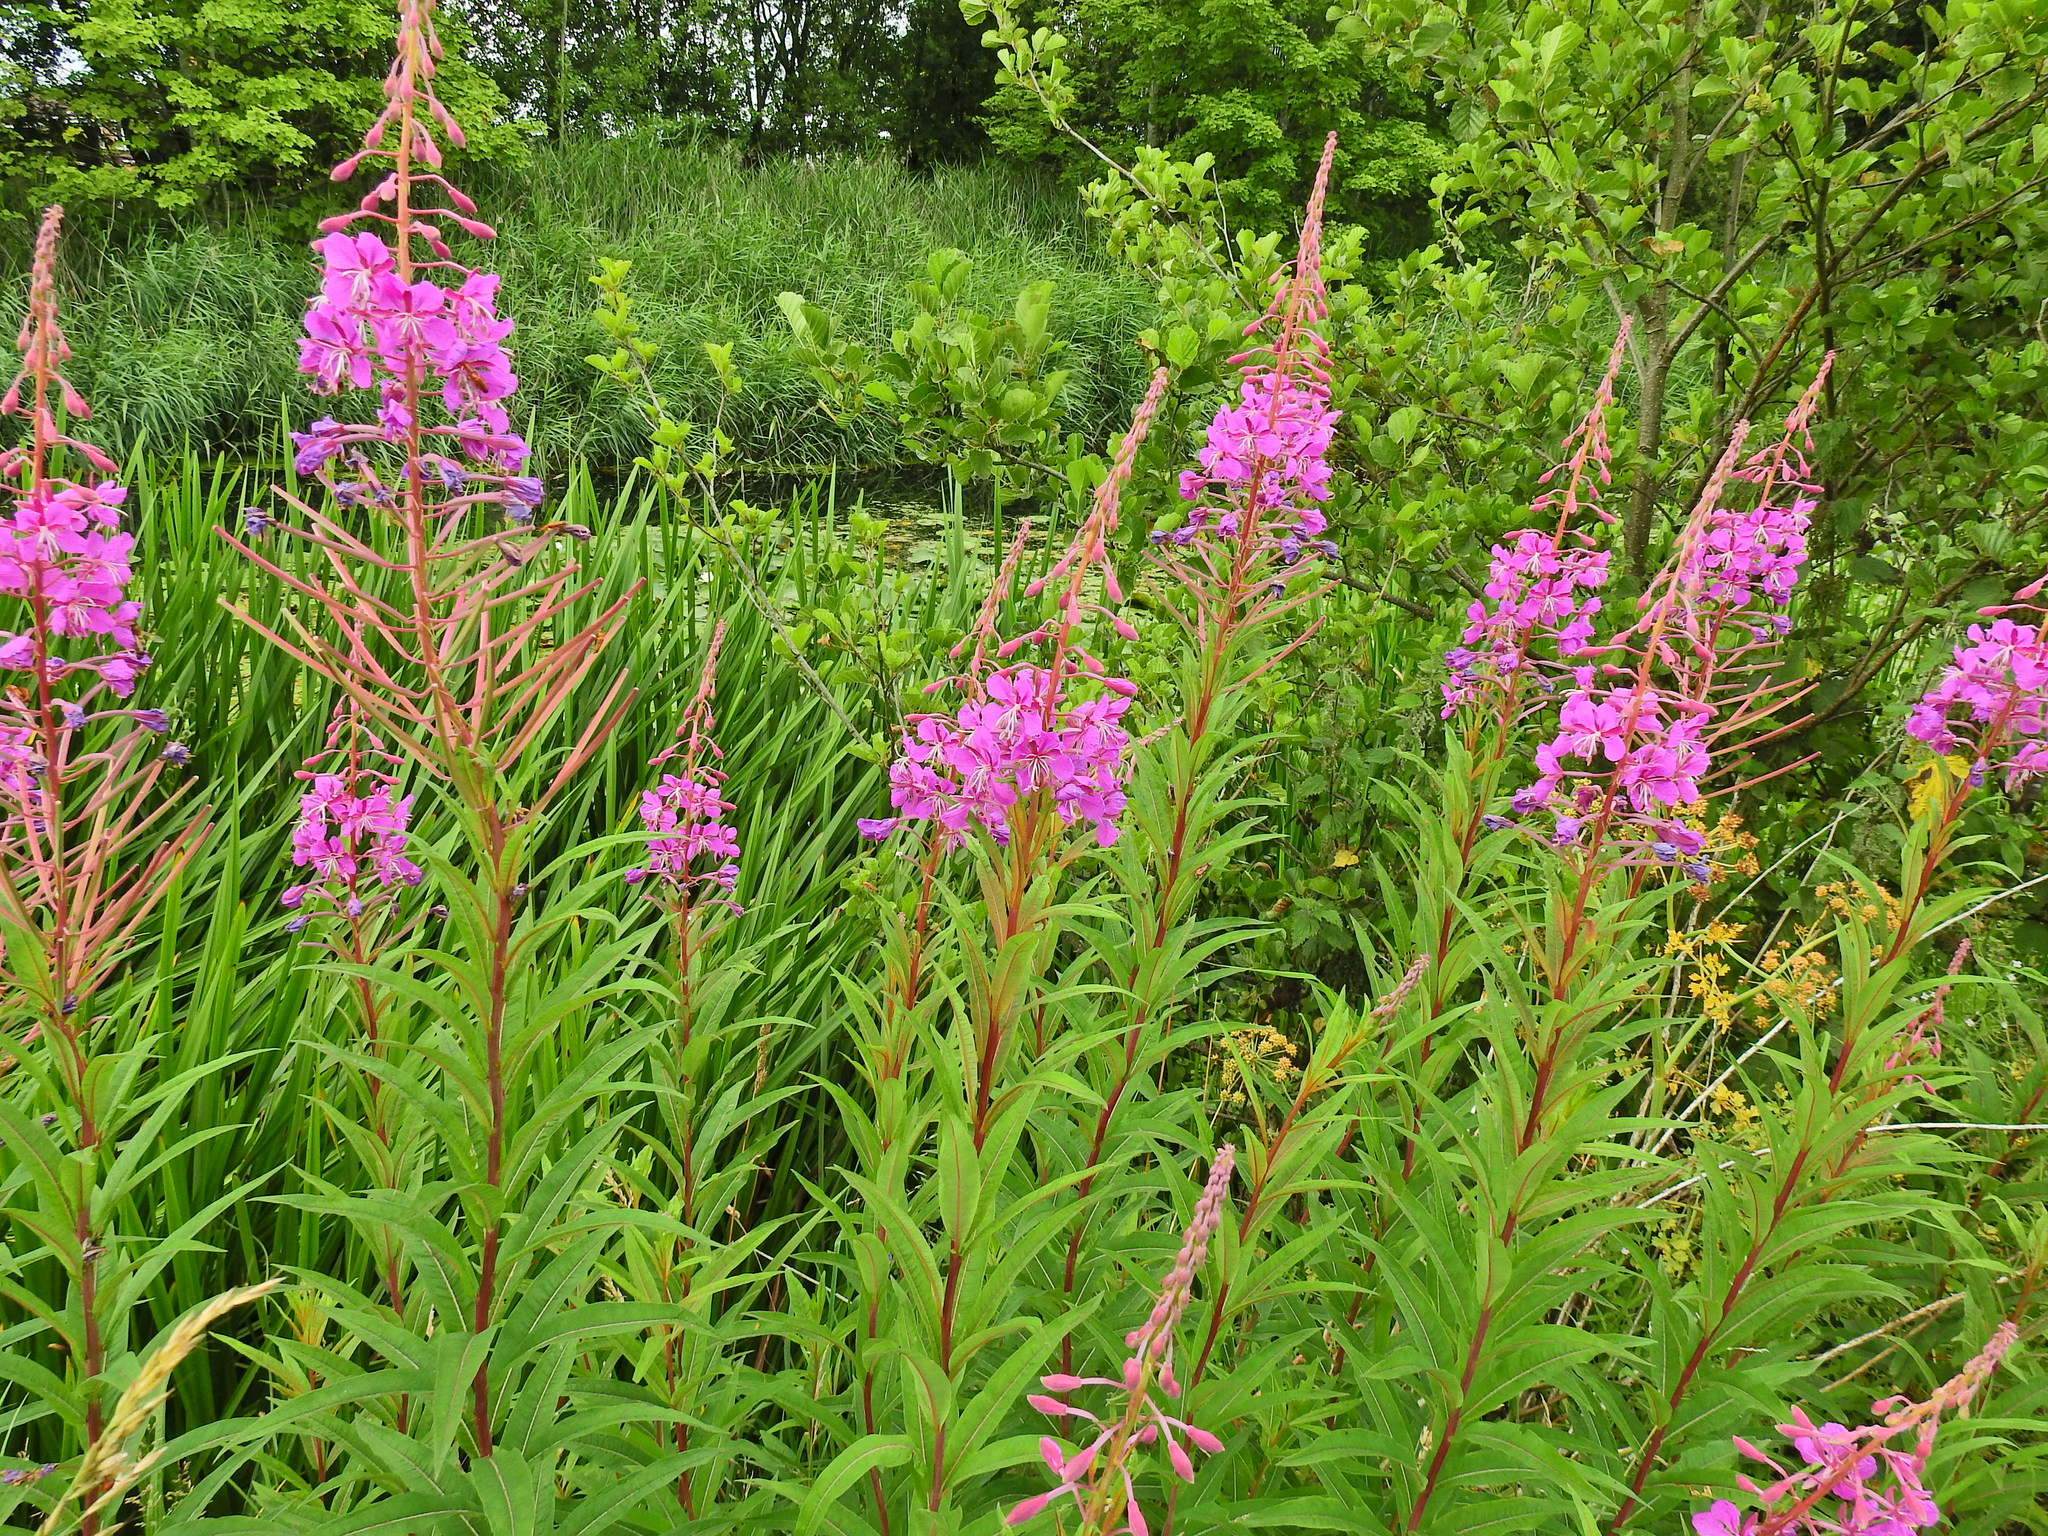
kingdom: Plantae
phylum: Tracheophyta
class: Magnoliopsida
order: Myrtales
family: Onagraceae
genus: Chamaenerion
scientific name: Chamaenerion angustifolium
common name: Fireweed
